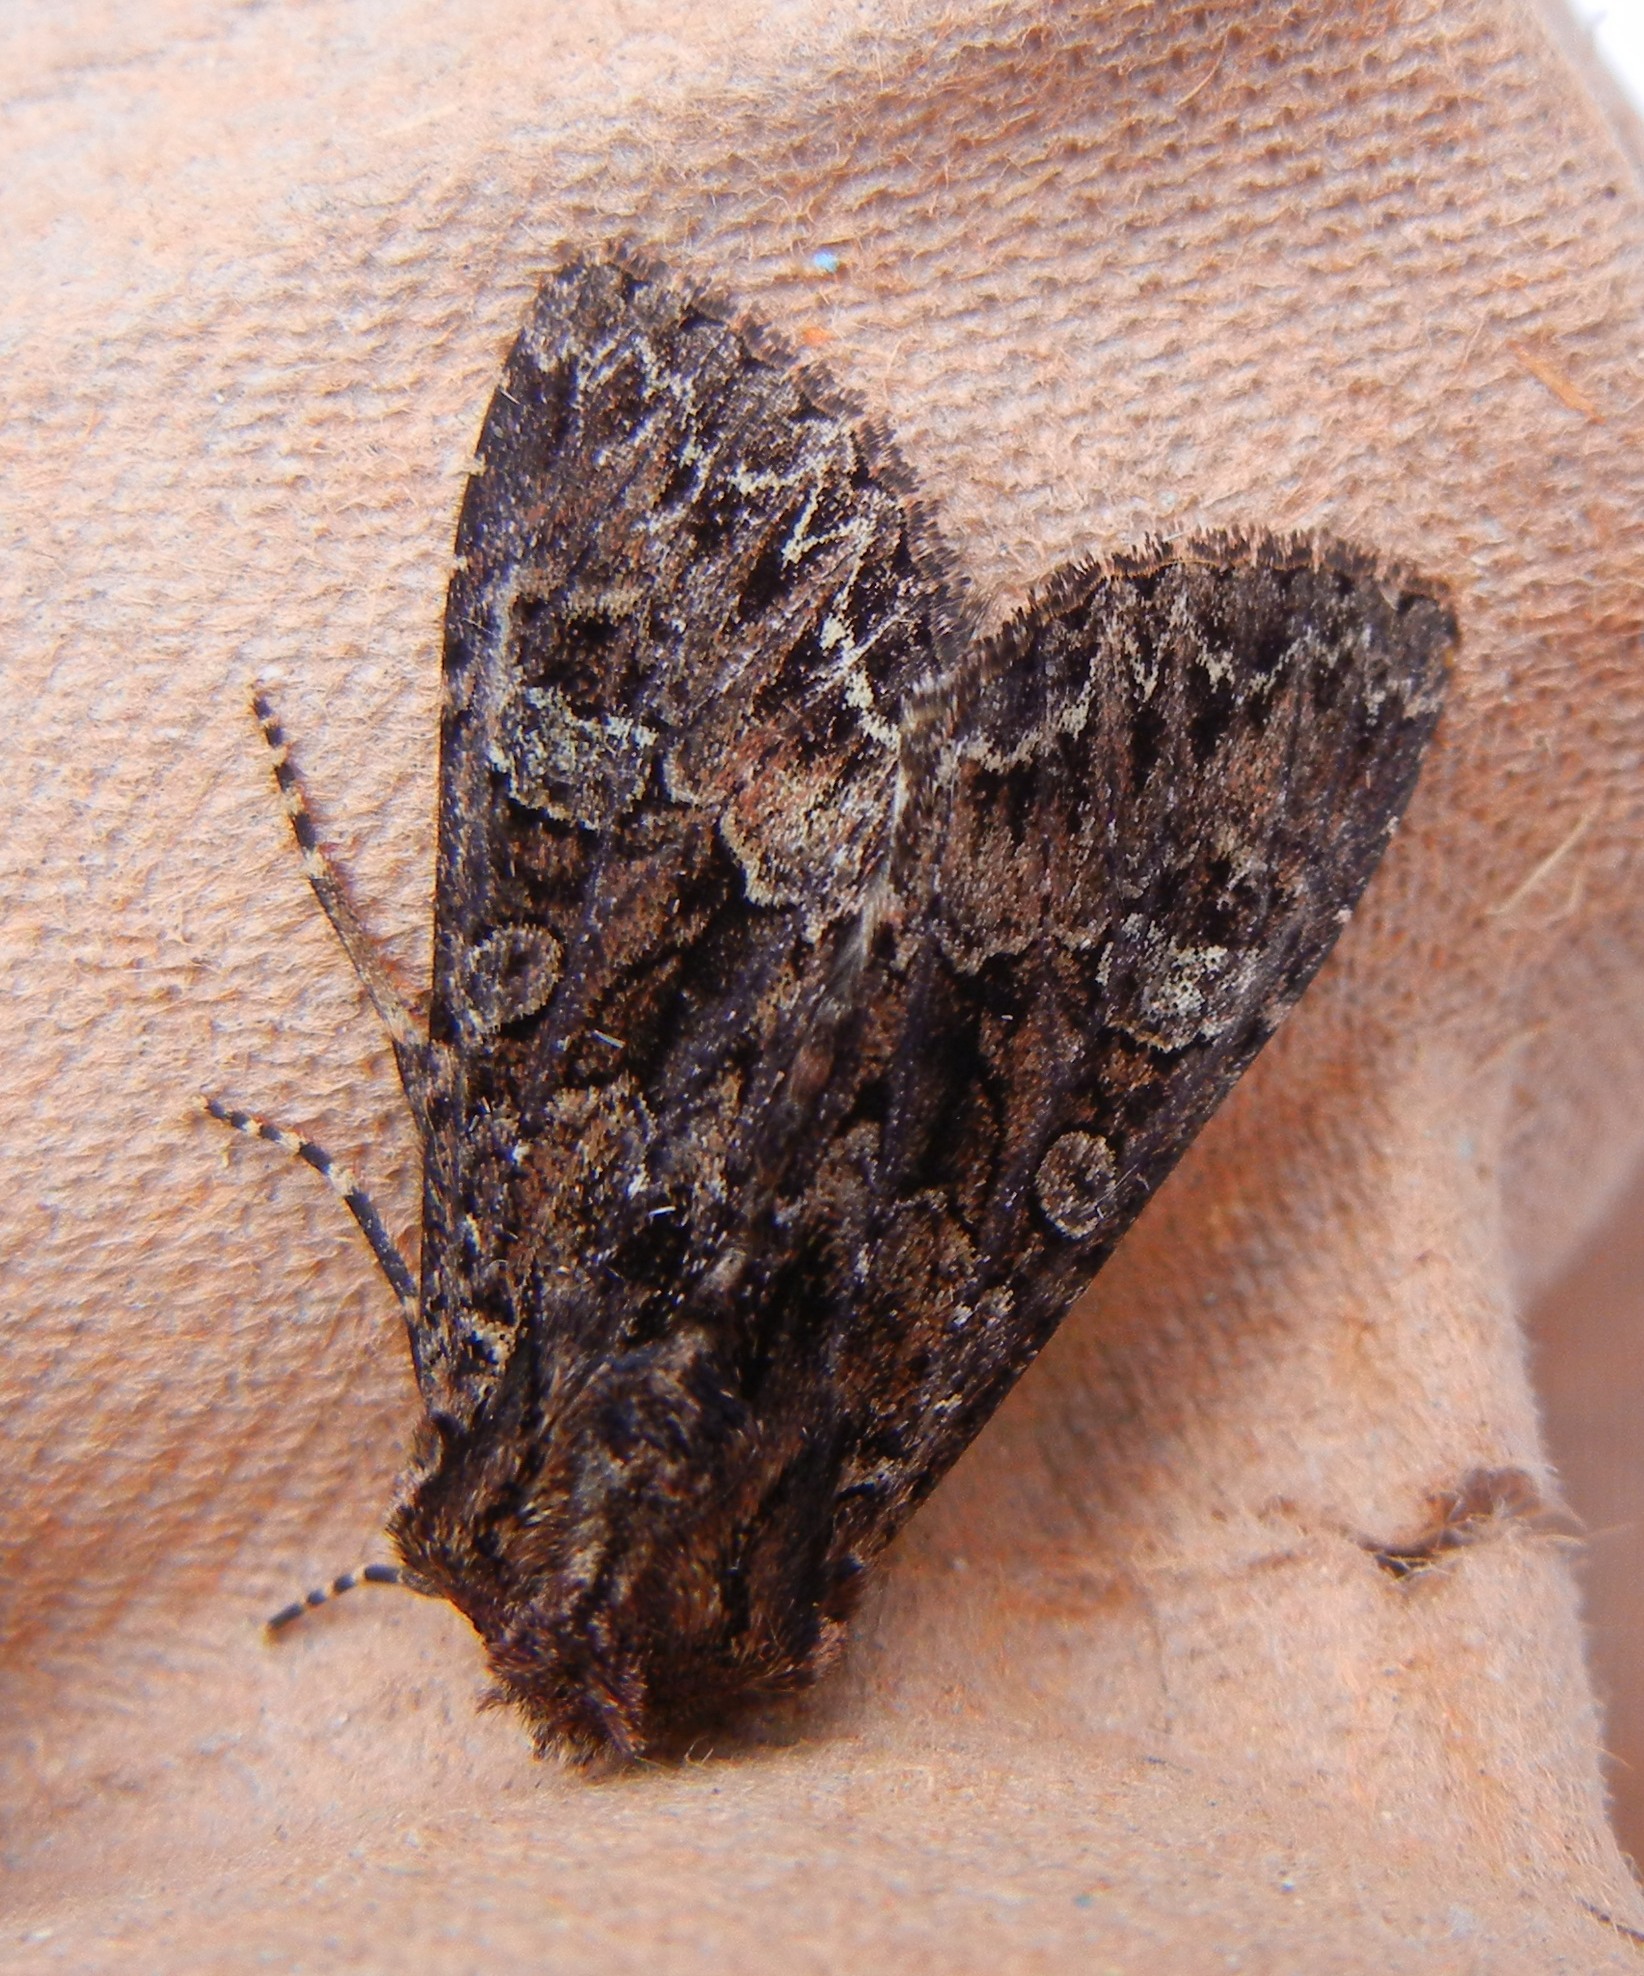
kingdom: Animalia
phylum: Arthropoda
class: Insecta
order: Lepidoptera
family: Noctuidae
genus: Mniotype
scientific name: Mniotype adusta
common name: Dark brocade
